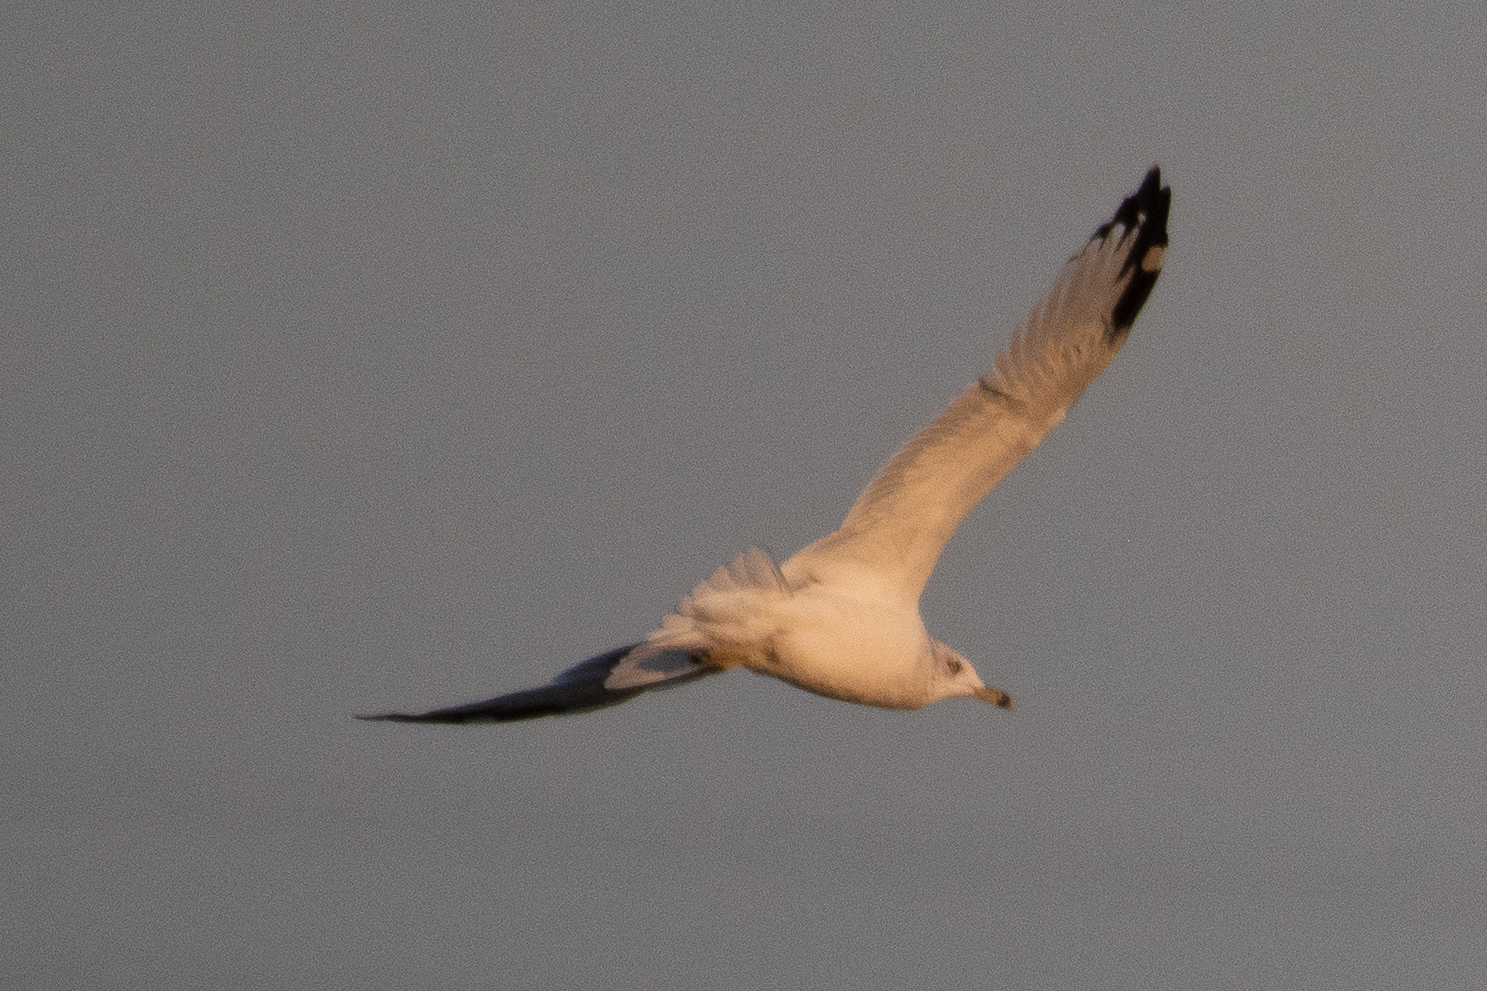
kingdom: Animalia
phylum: Chordata
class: Aves
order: Charadriiformes
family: Laridae
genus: Larus
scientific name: Larus delawarensis
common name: Ring-billed gull
